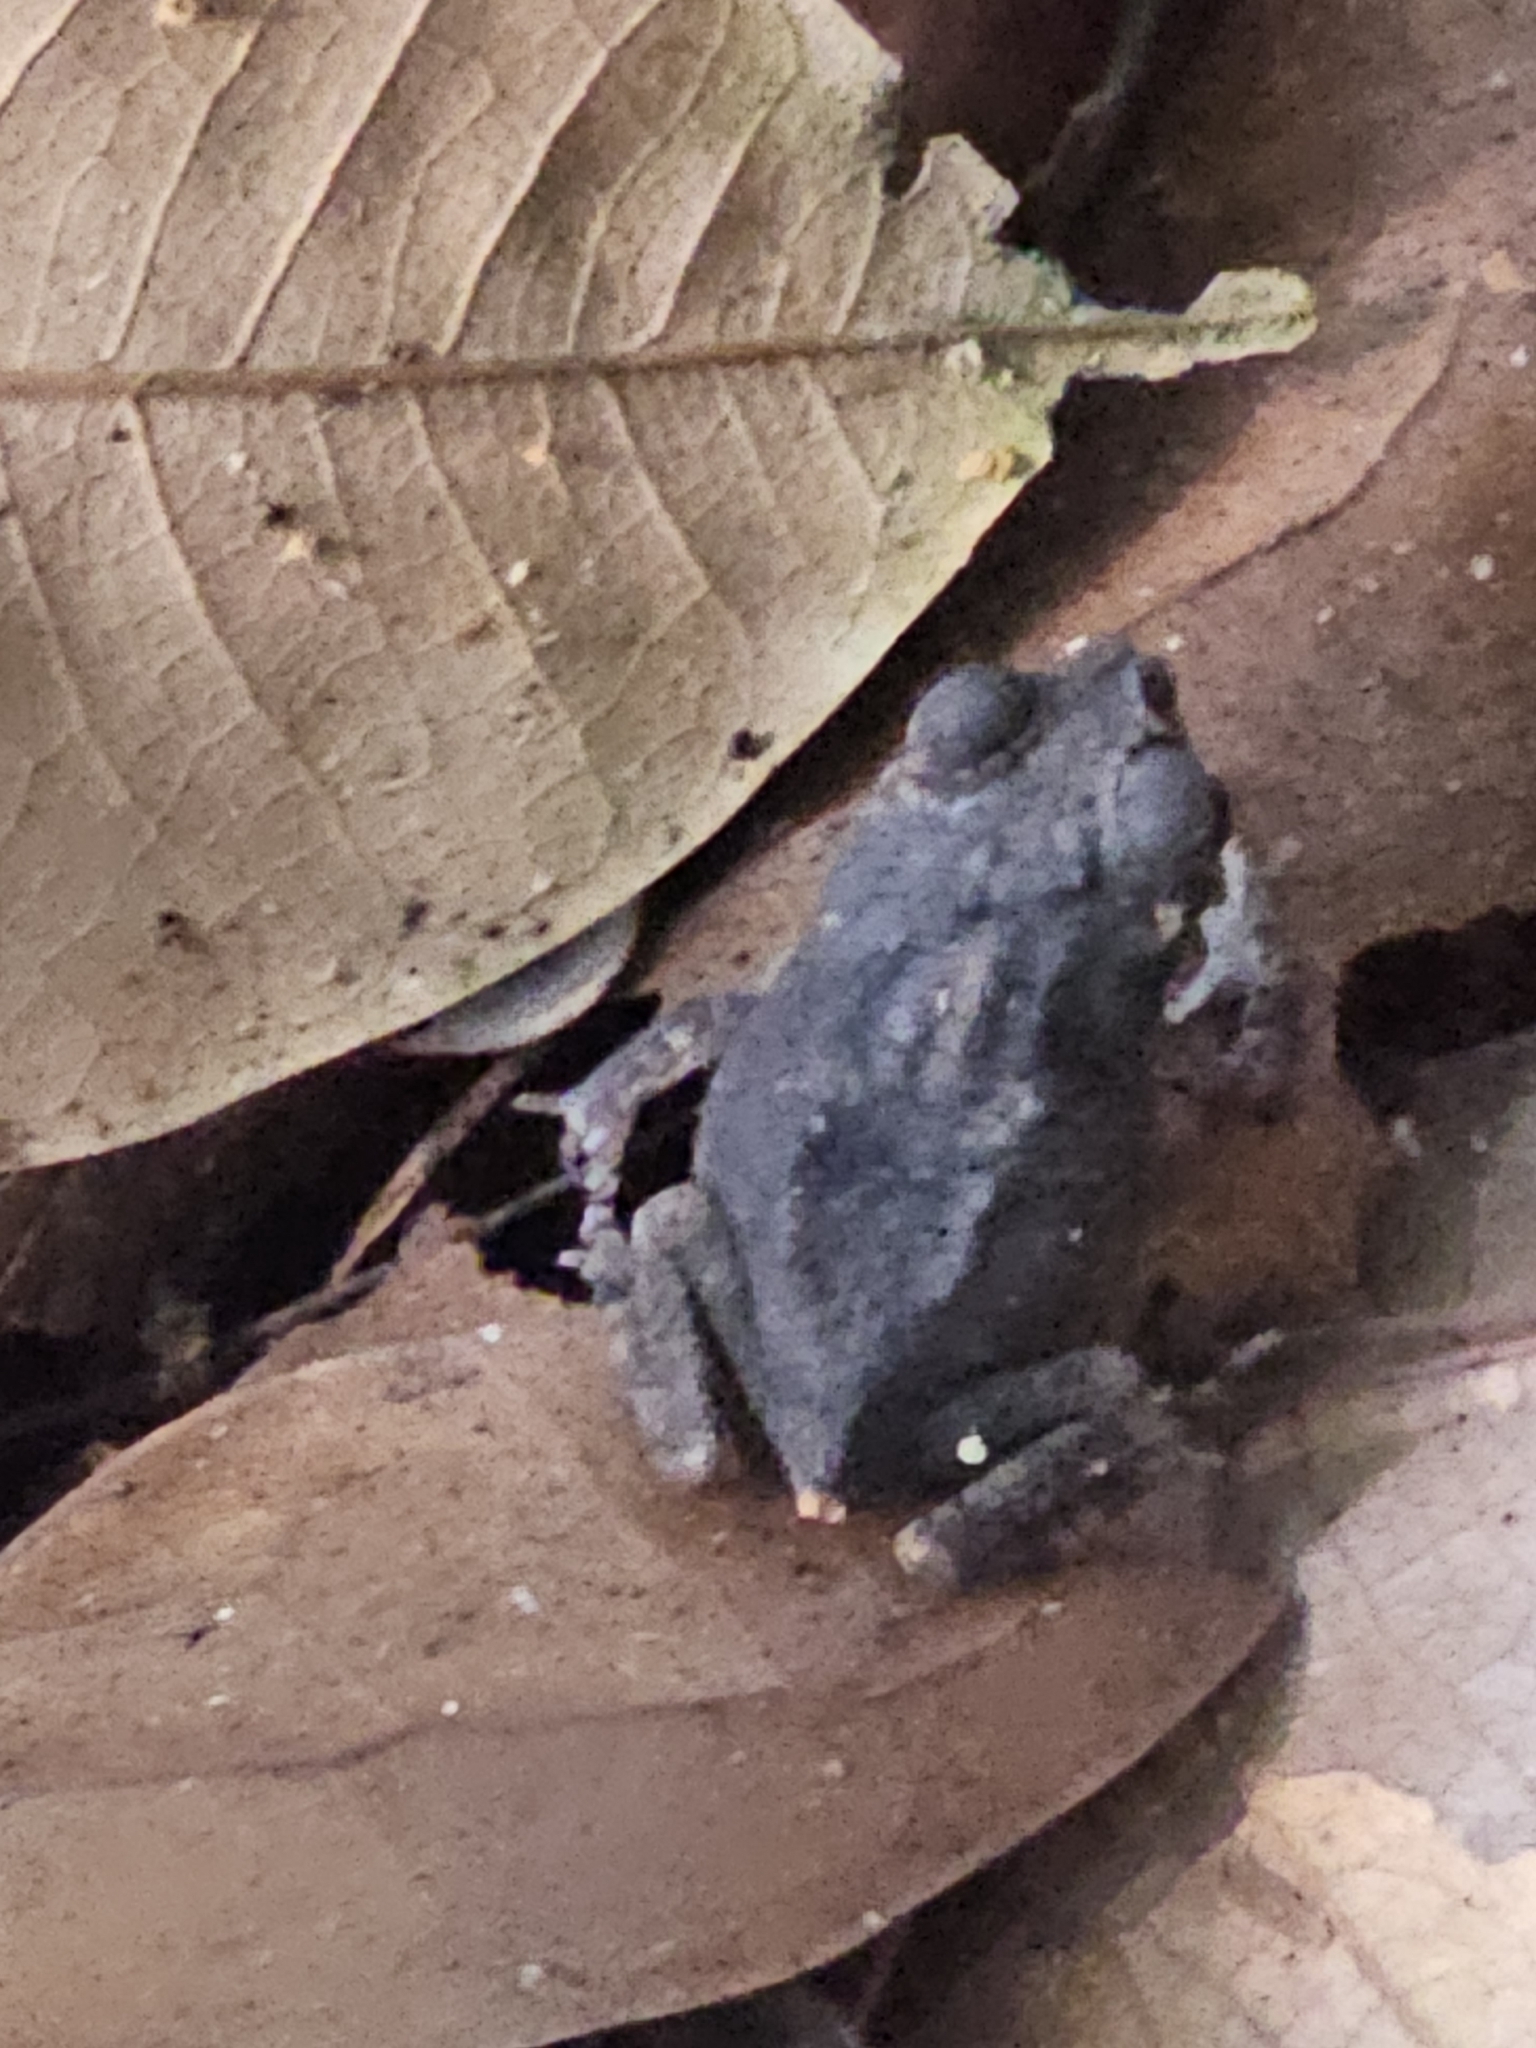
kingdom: Animalia
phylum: Chordata
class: Amphibia
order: Anura
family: Bufonidae
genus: Rhinella
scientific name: Rhinella margaritifera
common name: Mitred toad
